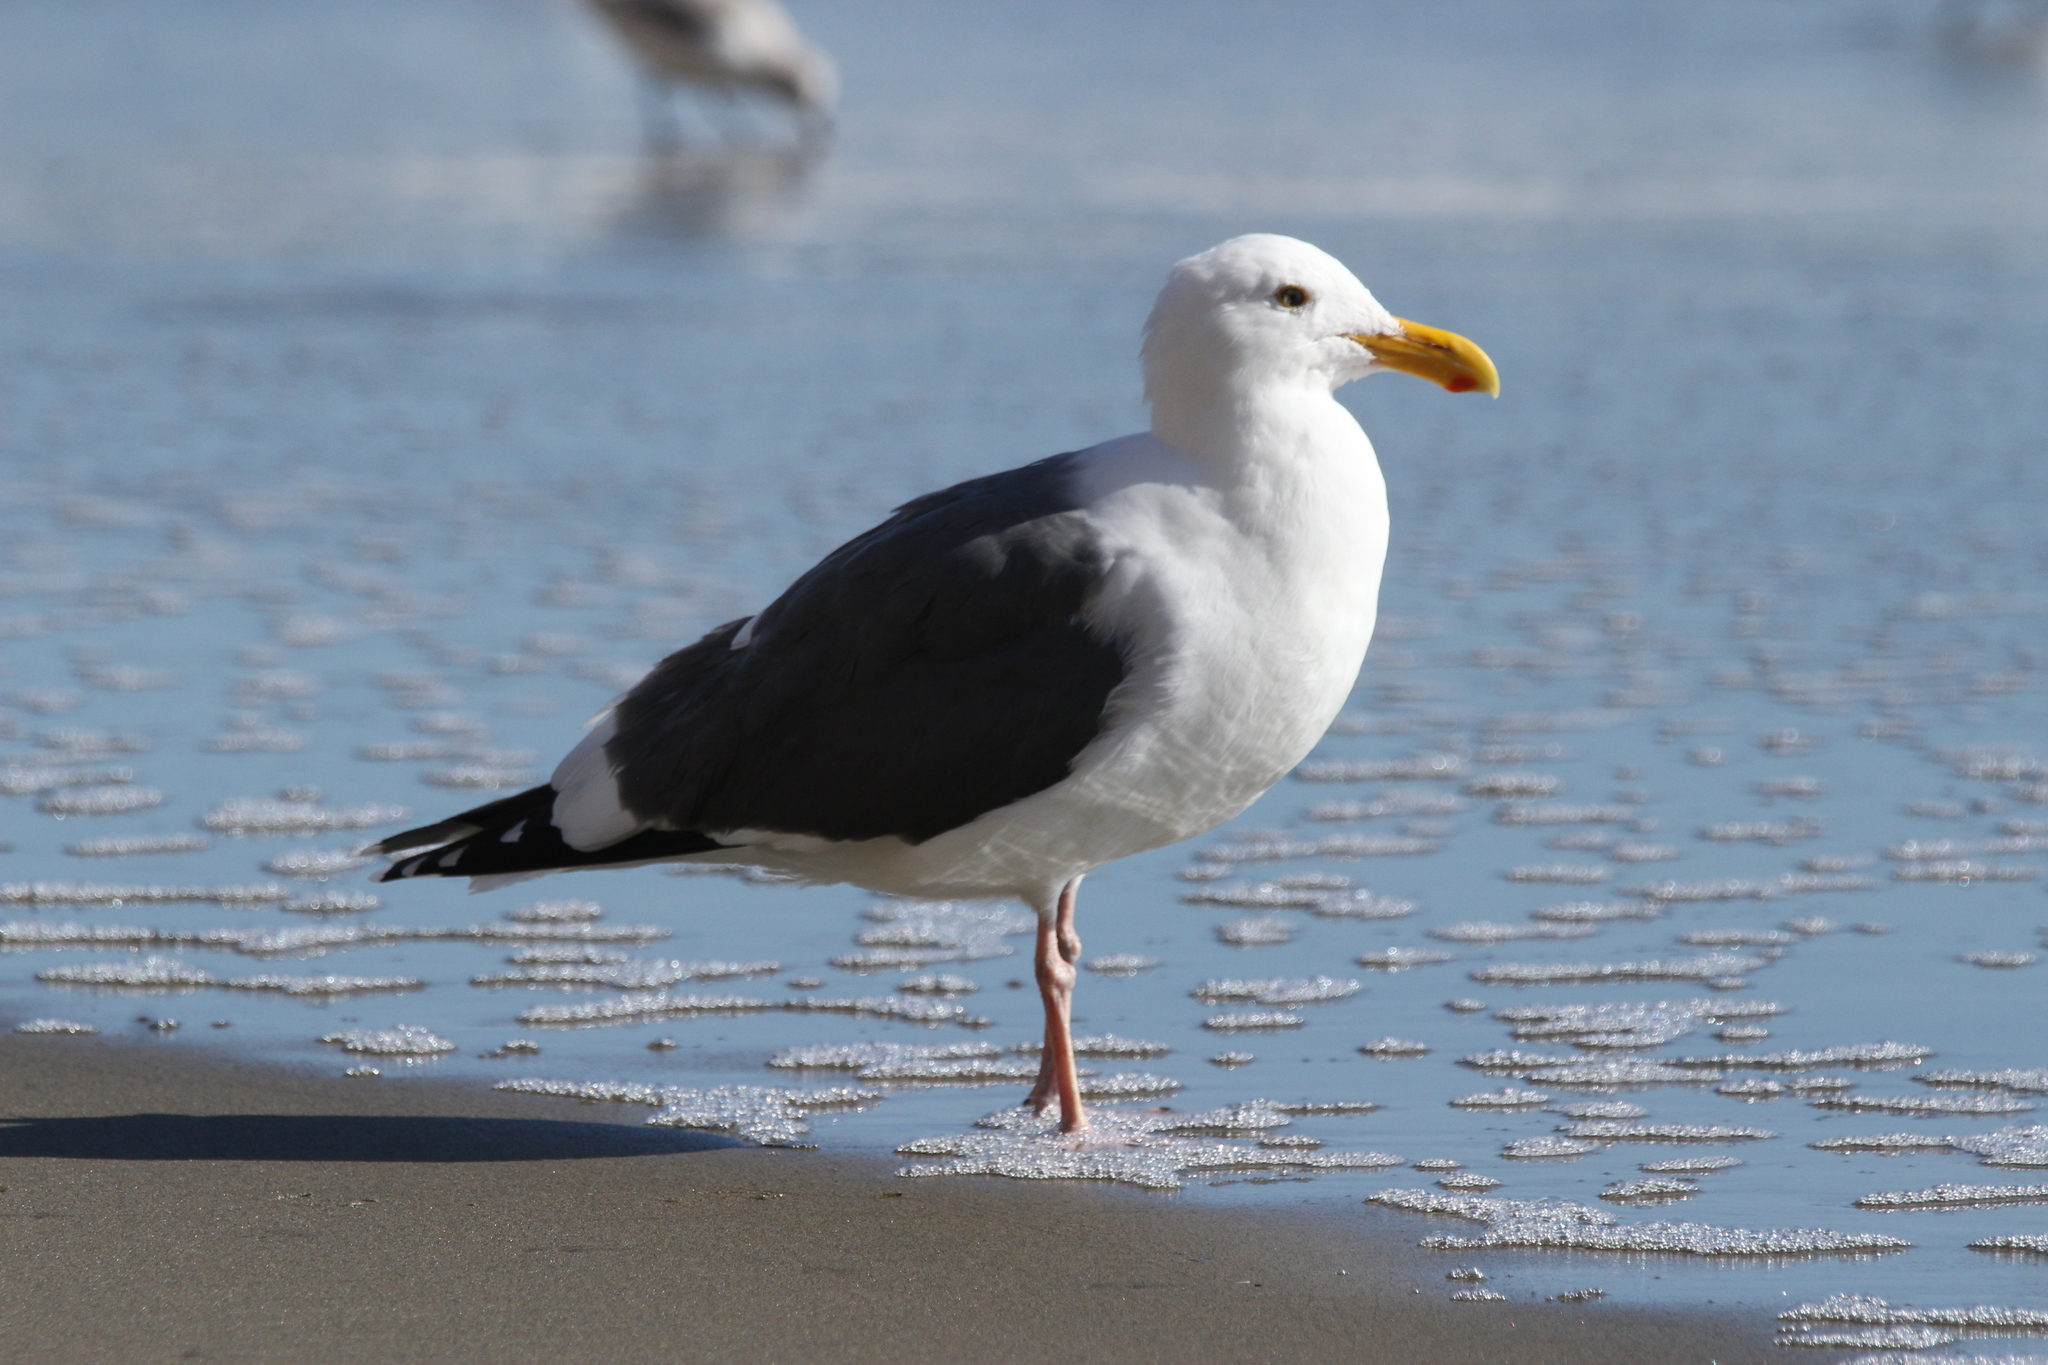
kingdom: Animalia
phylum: Chordata
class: Aves
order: Charadriiformes
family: Laridae
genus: Larus
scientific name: Larus occidentalis
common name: Western gull
